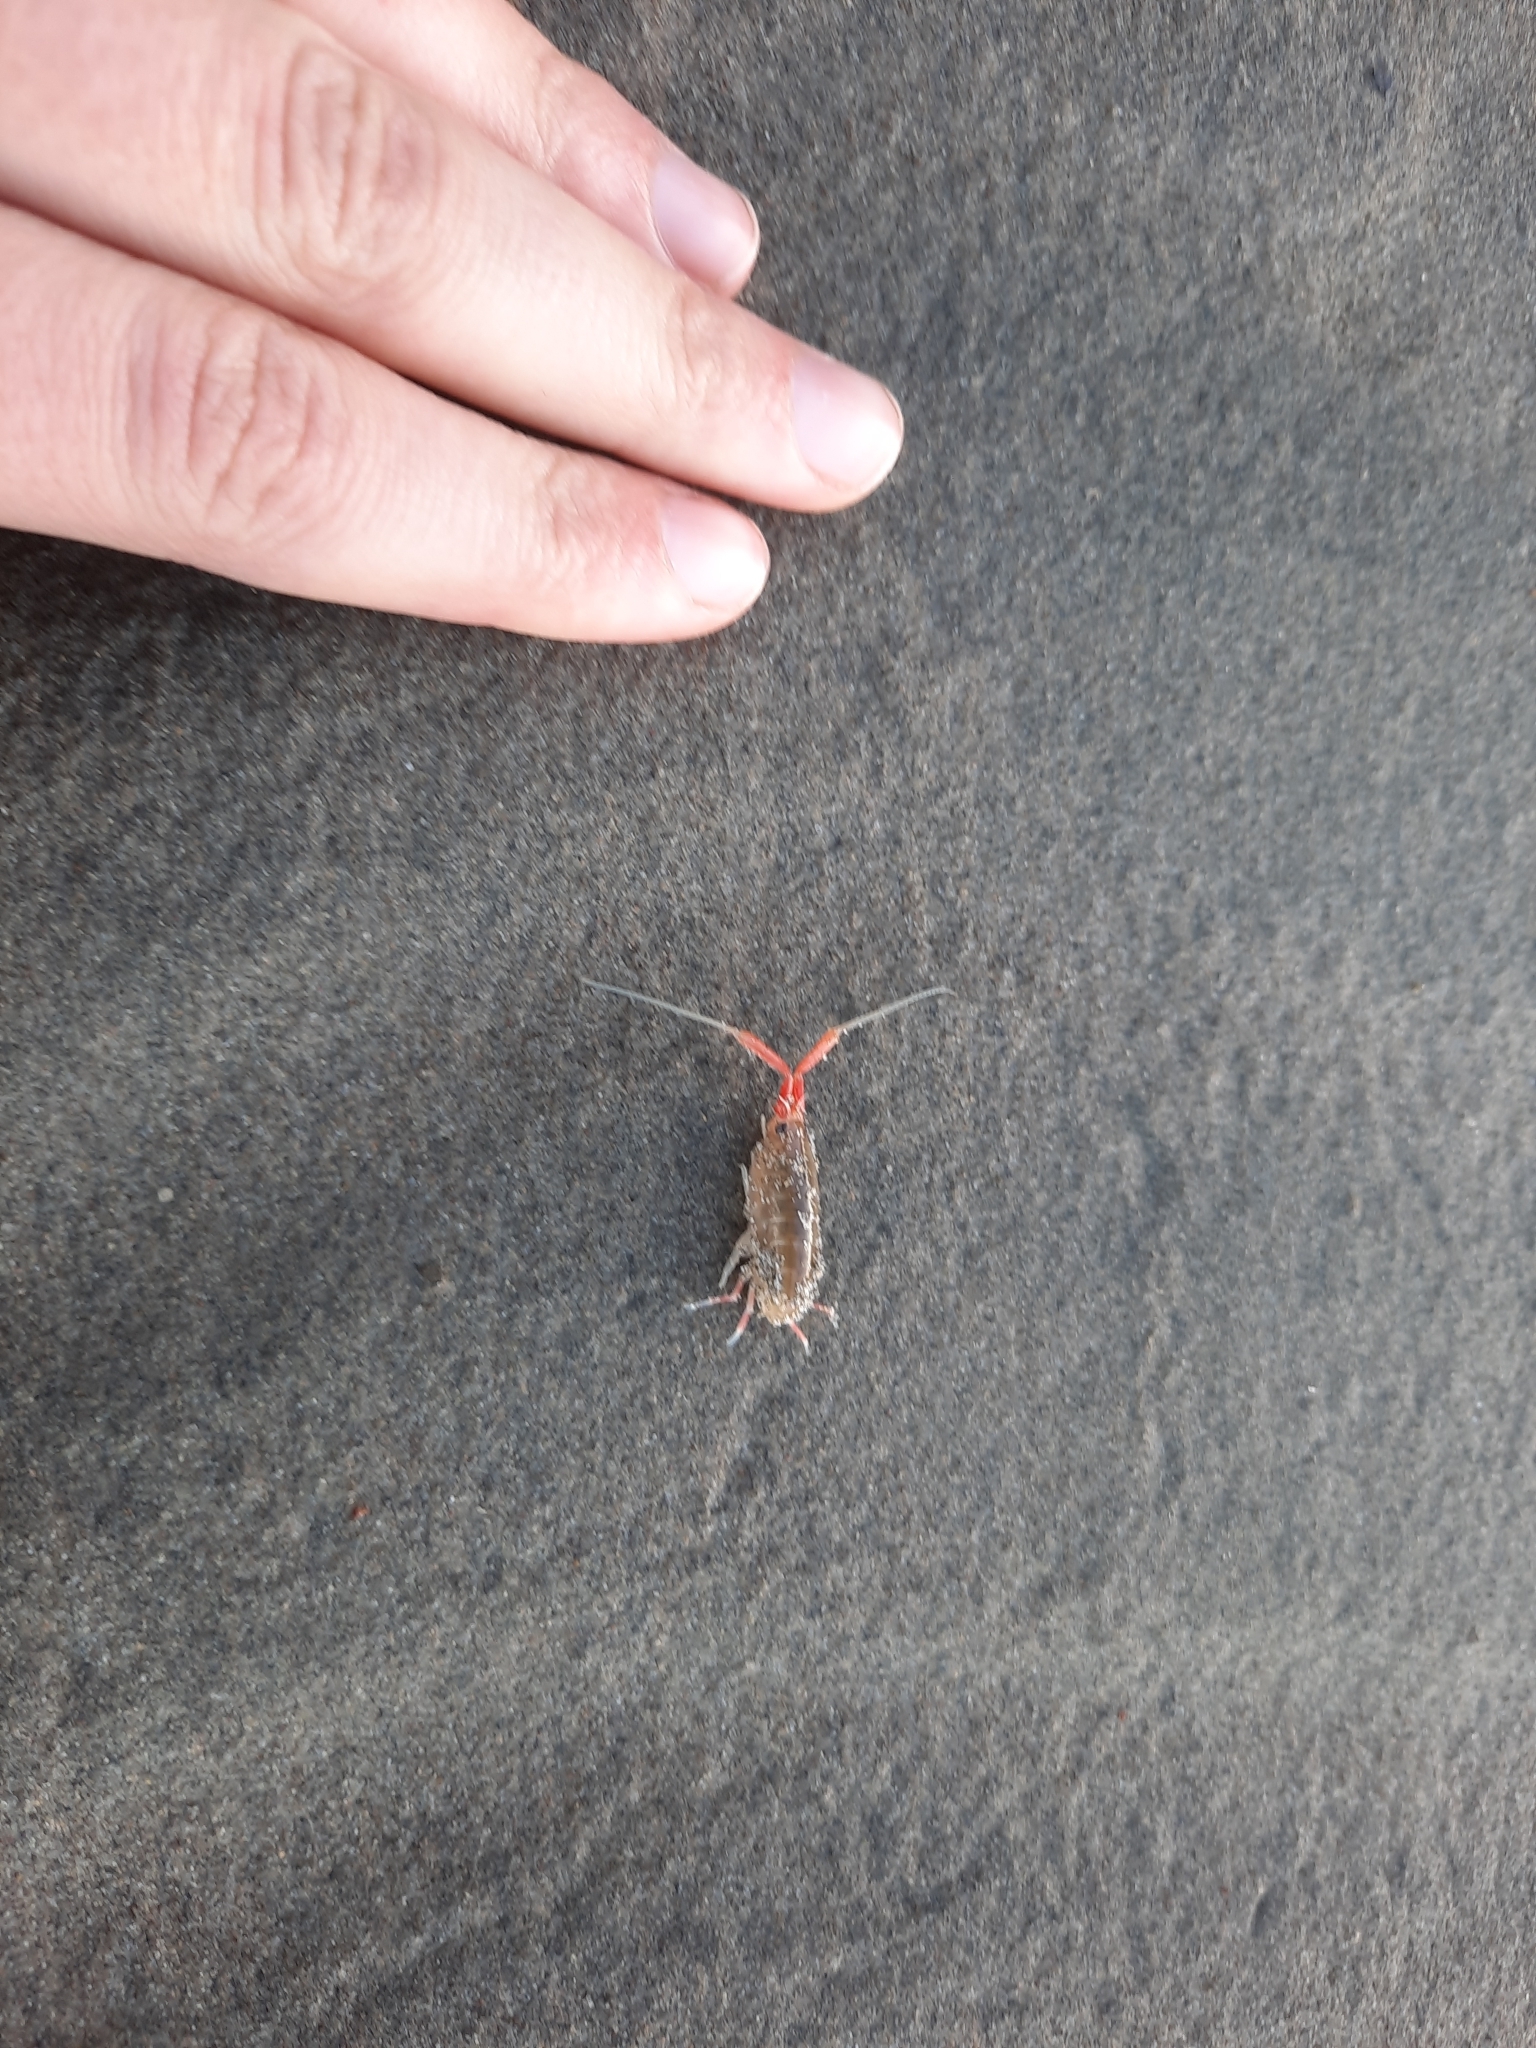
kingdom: Animalia
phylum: Arthropoda
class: Malacostraca
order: Amphipoda
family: Talitridae
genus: Megalorchestia
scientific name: Megalorchestia californiana
